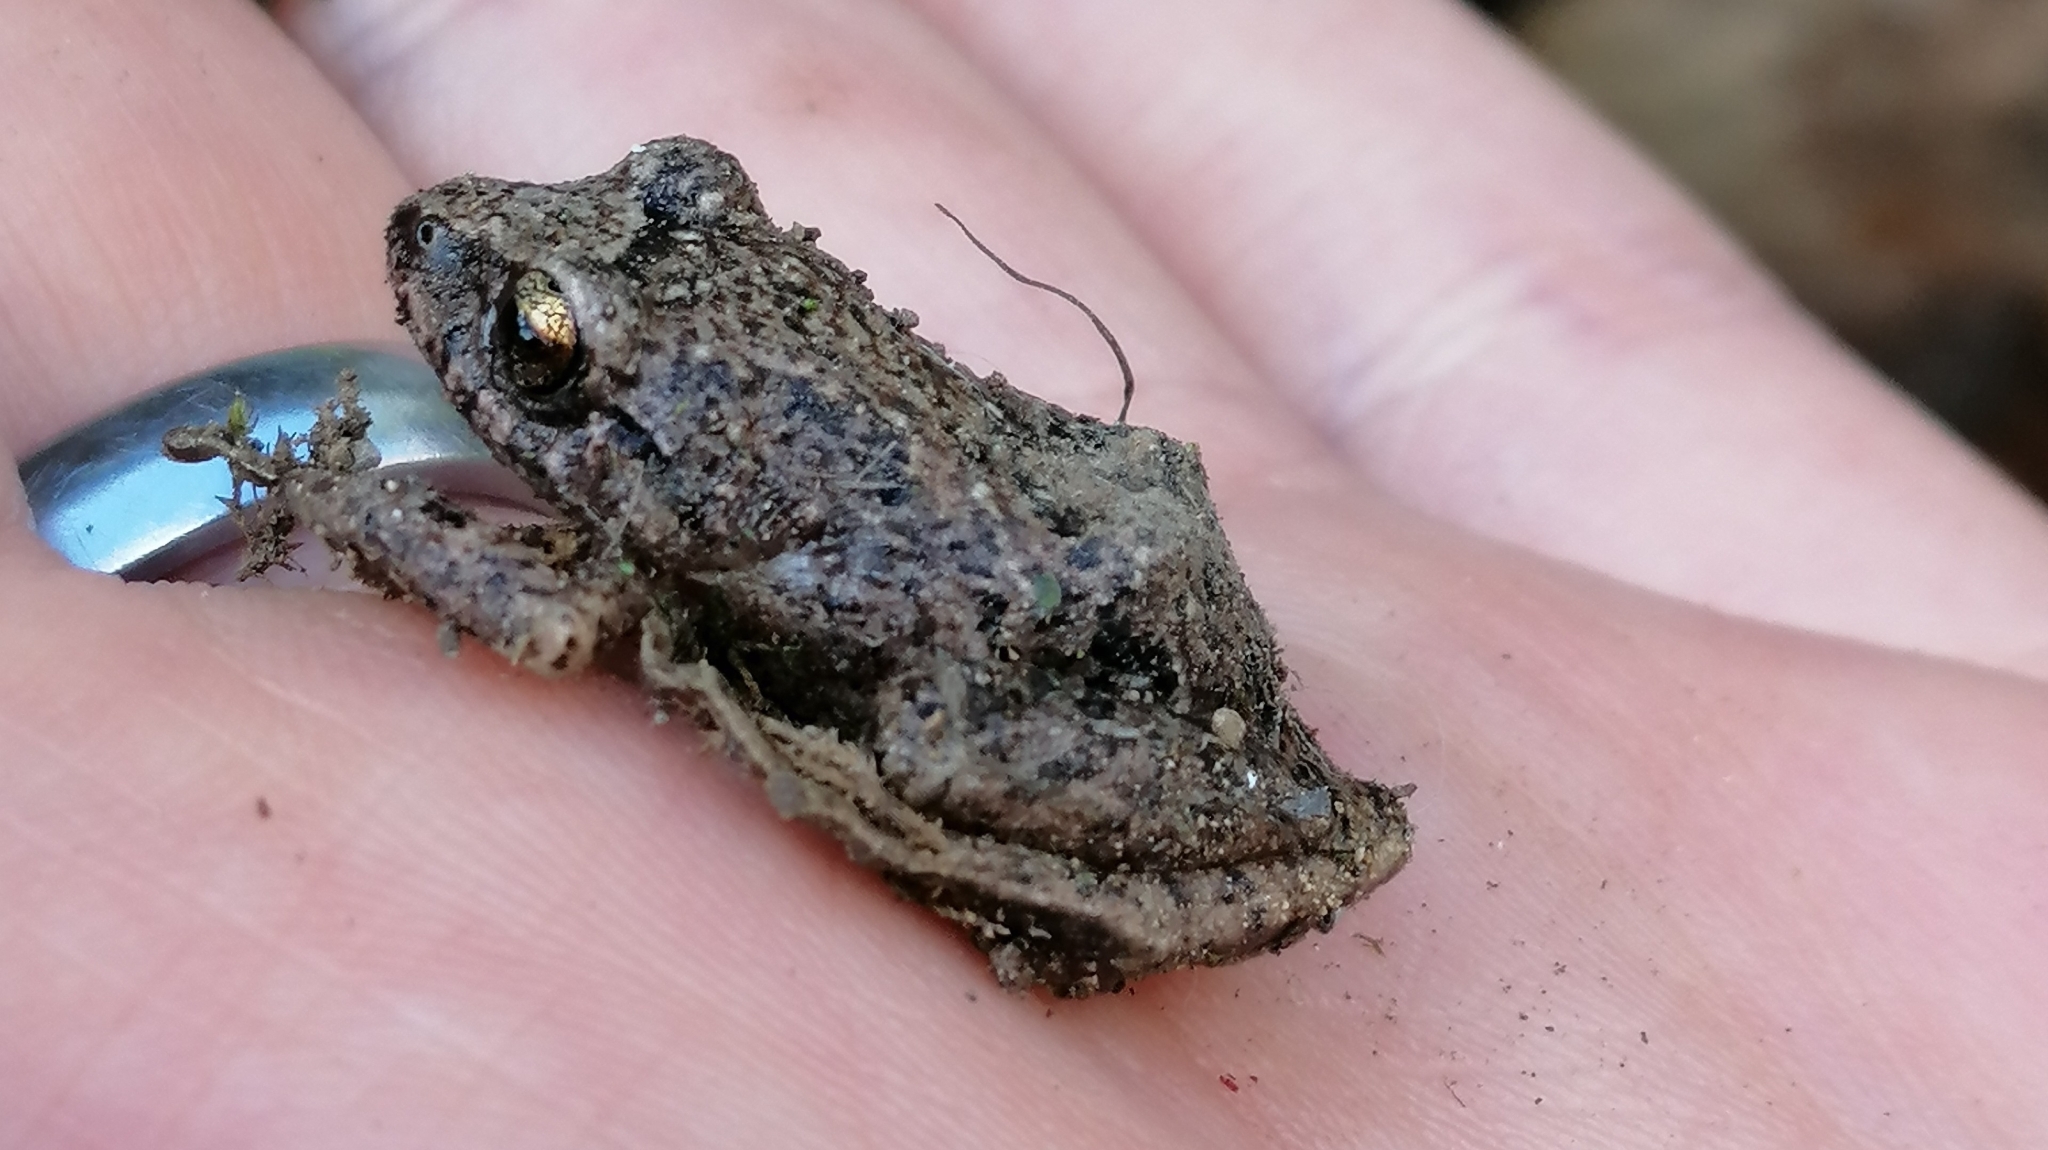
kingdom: Animalia
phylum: Chordata
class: Amphibia
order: Anura
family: Craugastoridae
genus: Pristimantis
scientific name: Pristimantis unistrigatus
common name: Striped robber frog
